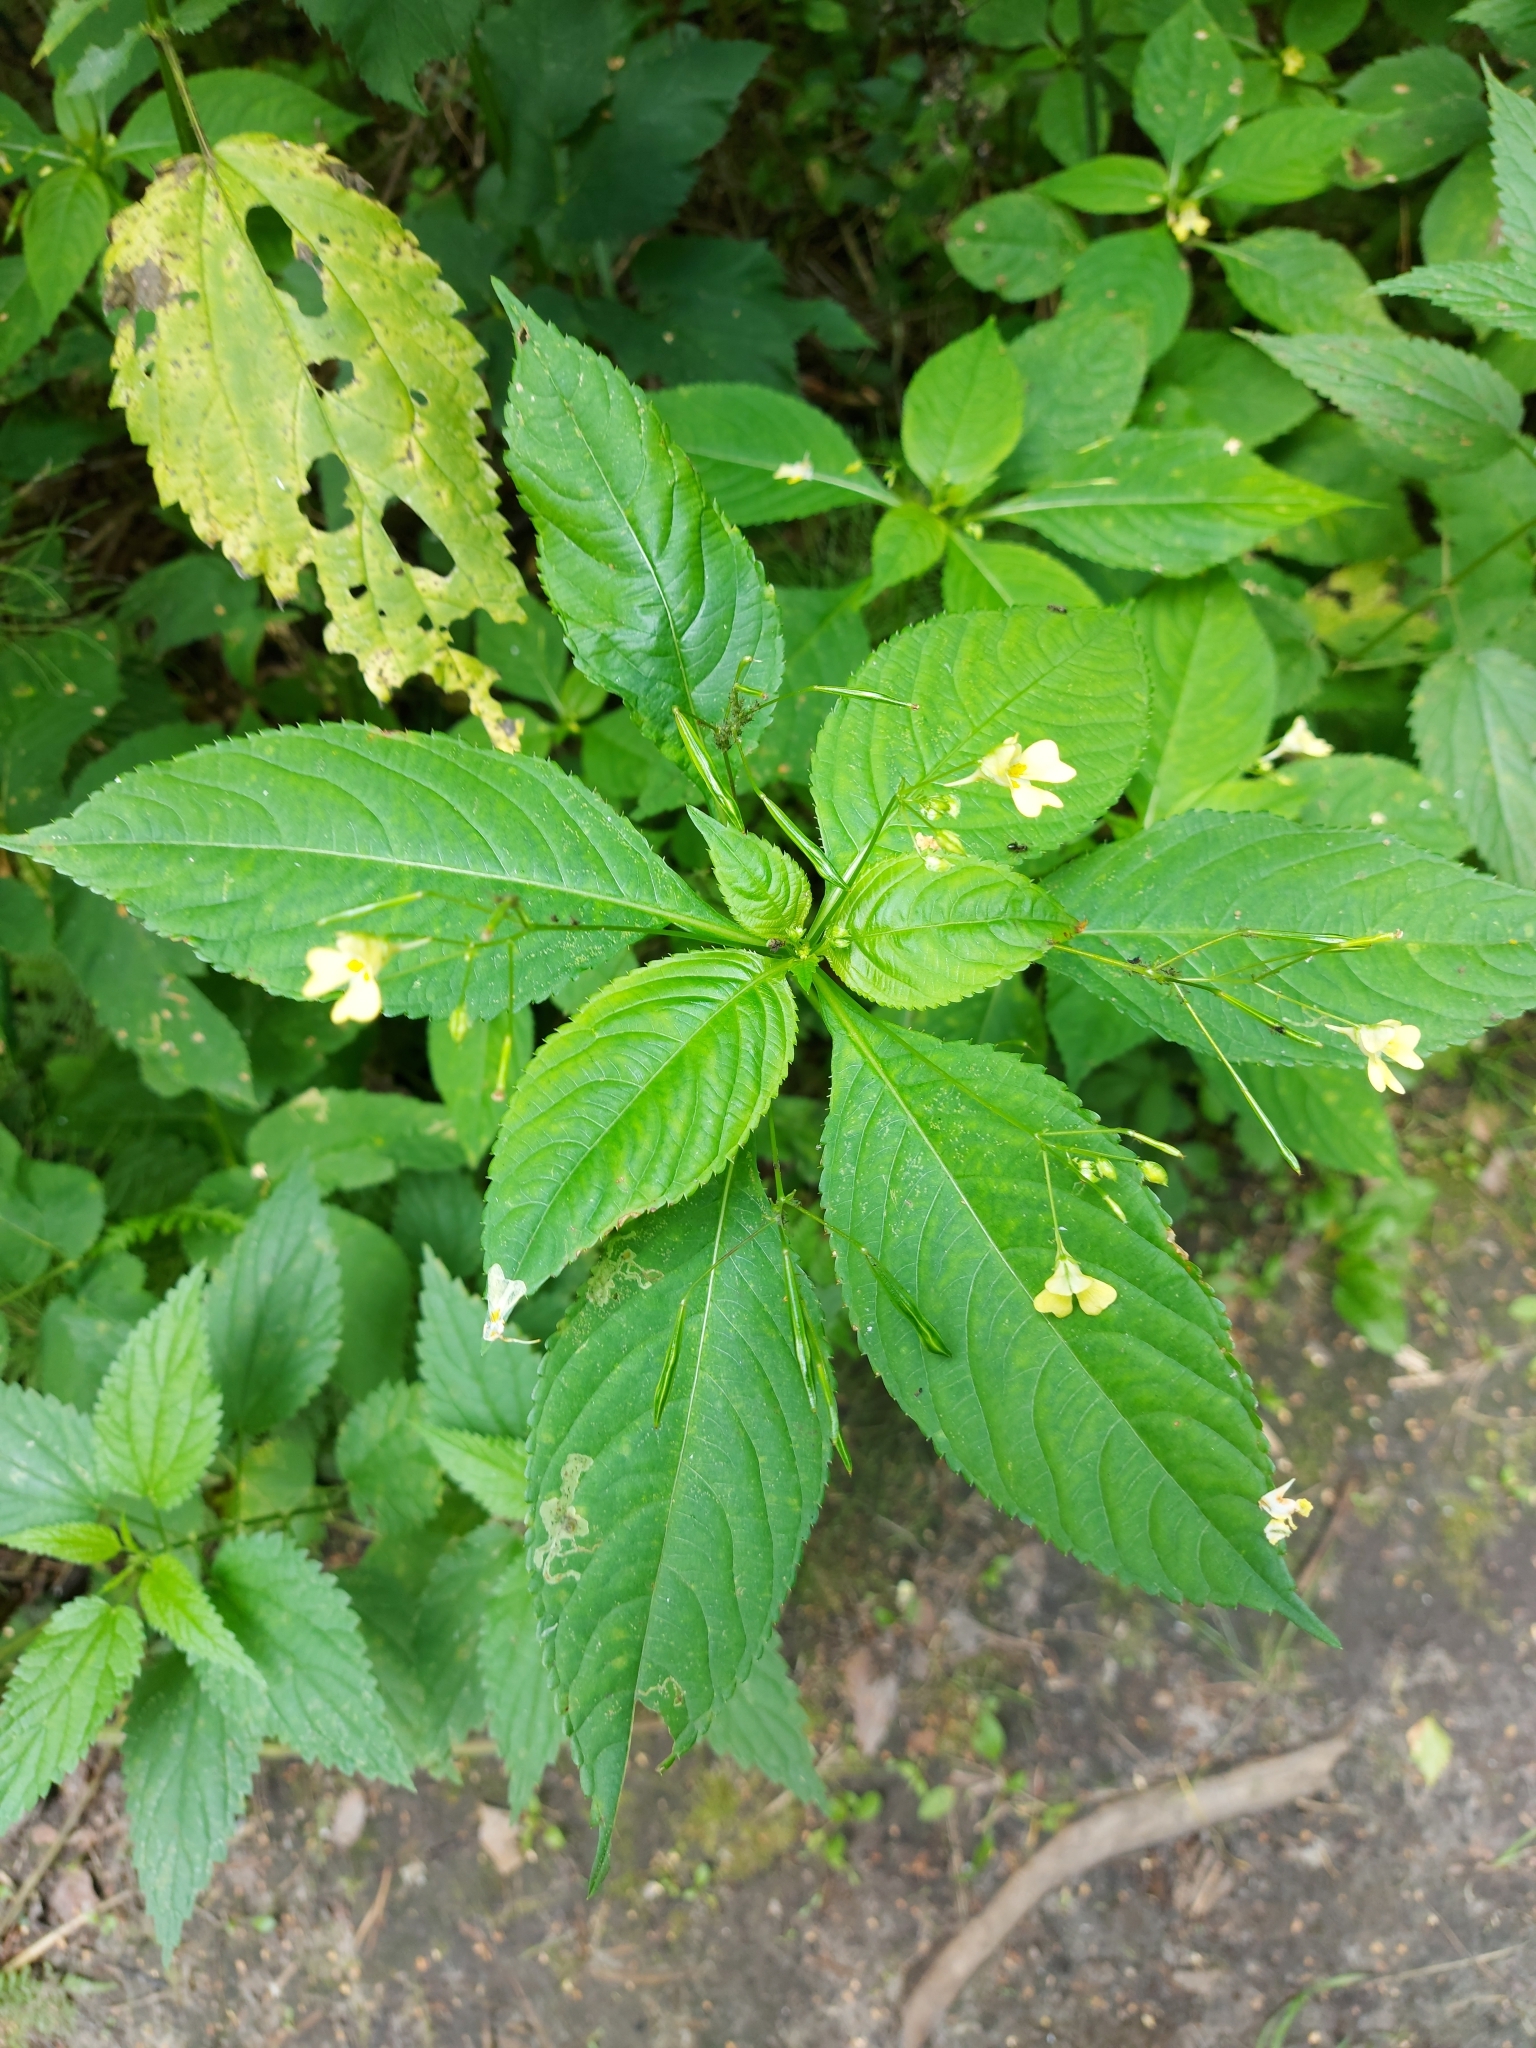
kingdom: Plantae
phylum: Tracheophyta
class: Magnoliopsida
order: Ericales
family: Balsaminaceae
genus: Impatiens
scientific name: Impatiens parviflora
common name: Small balsam
